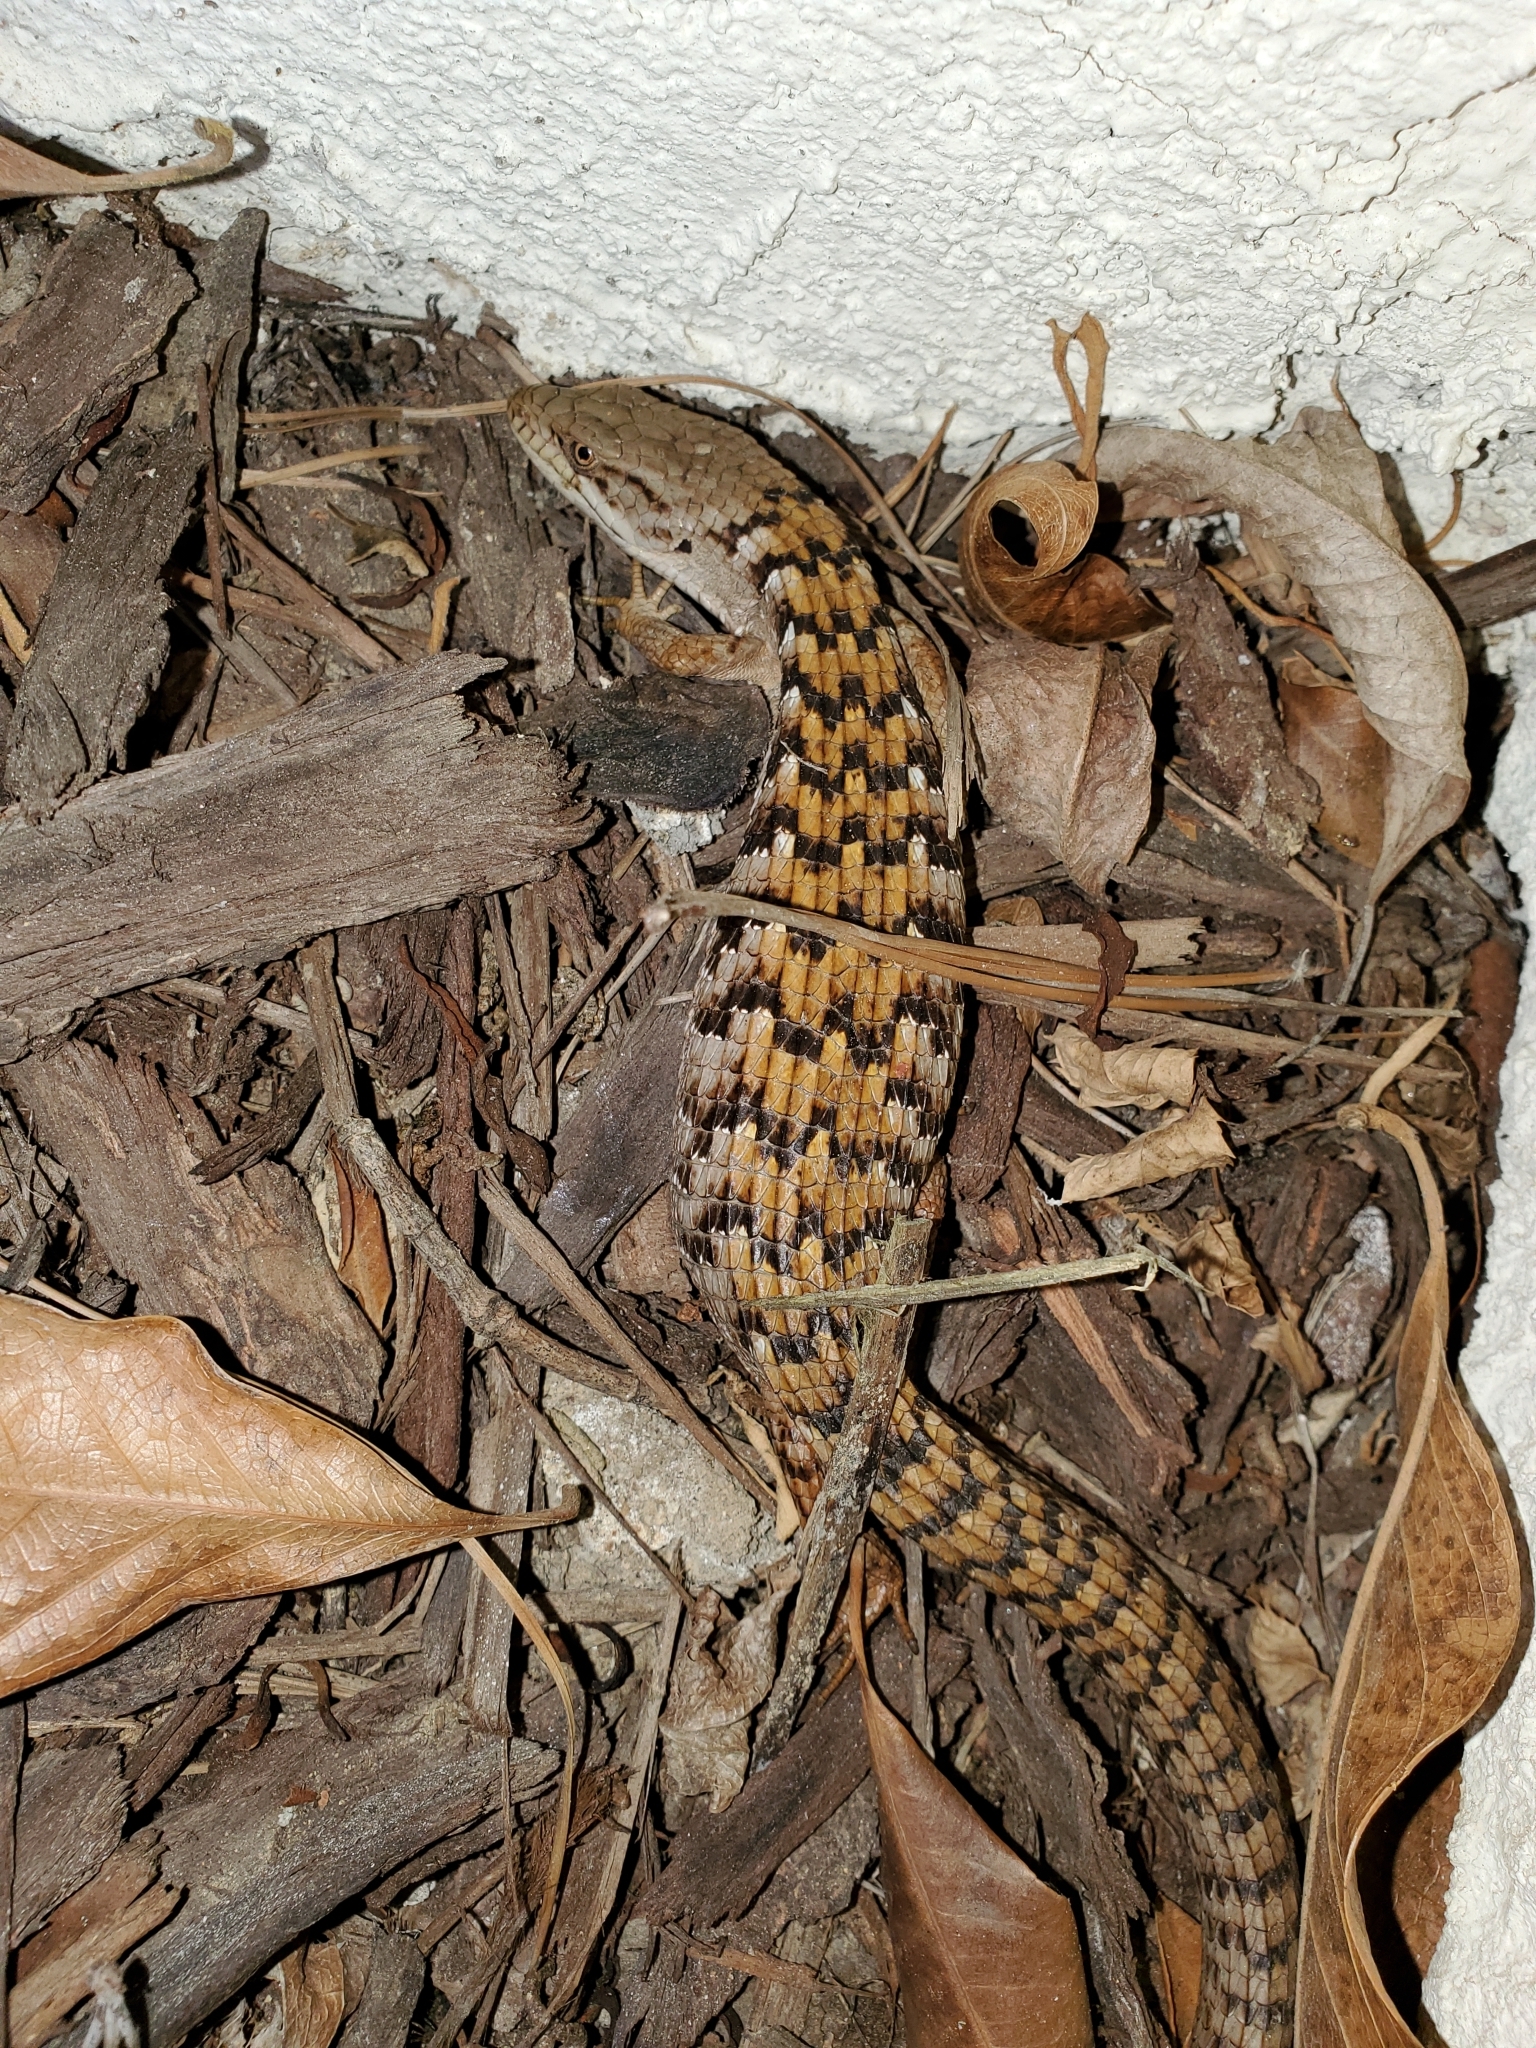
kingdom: Animalia
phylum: Chordata
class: Squamata
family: Anguidae
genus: Elgaria
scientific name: Elgaria multicarinata
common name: Southern alligator lizard
